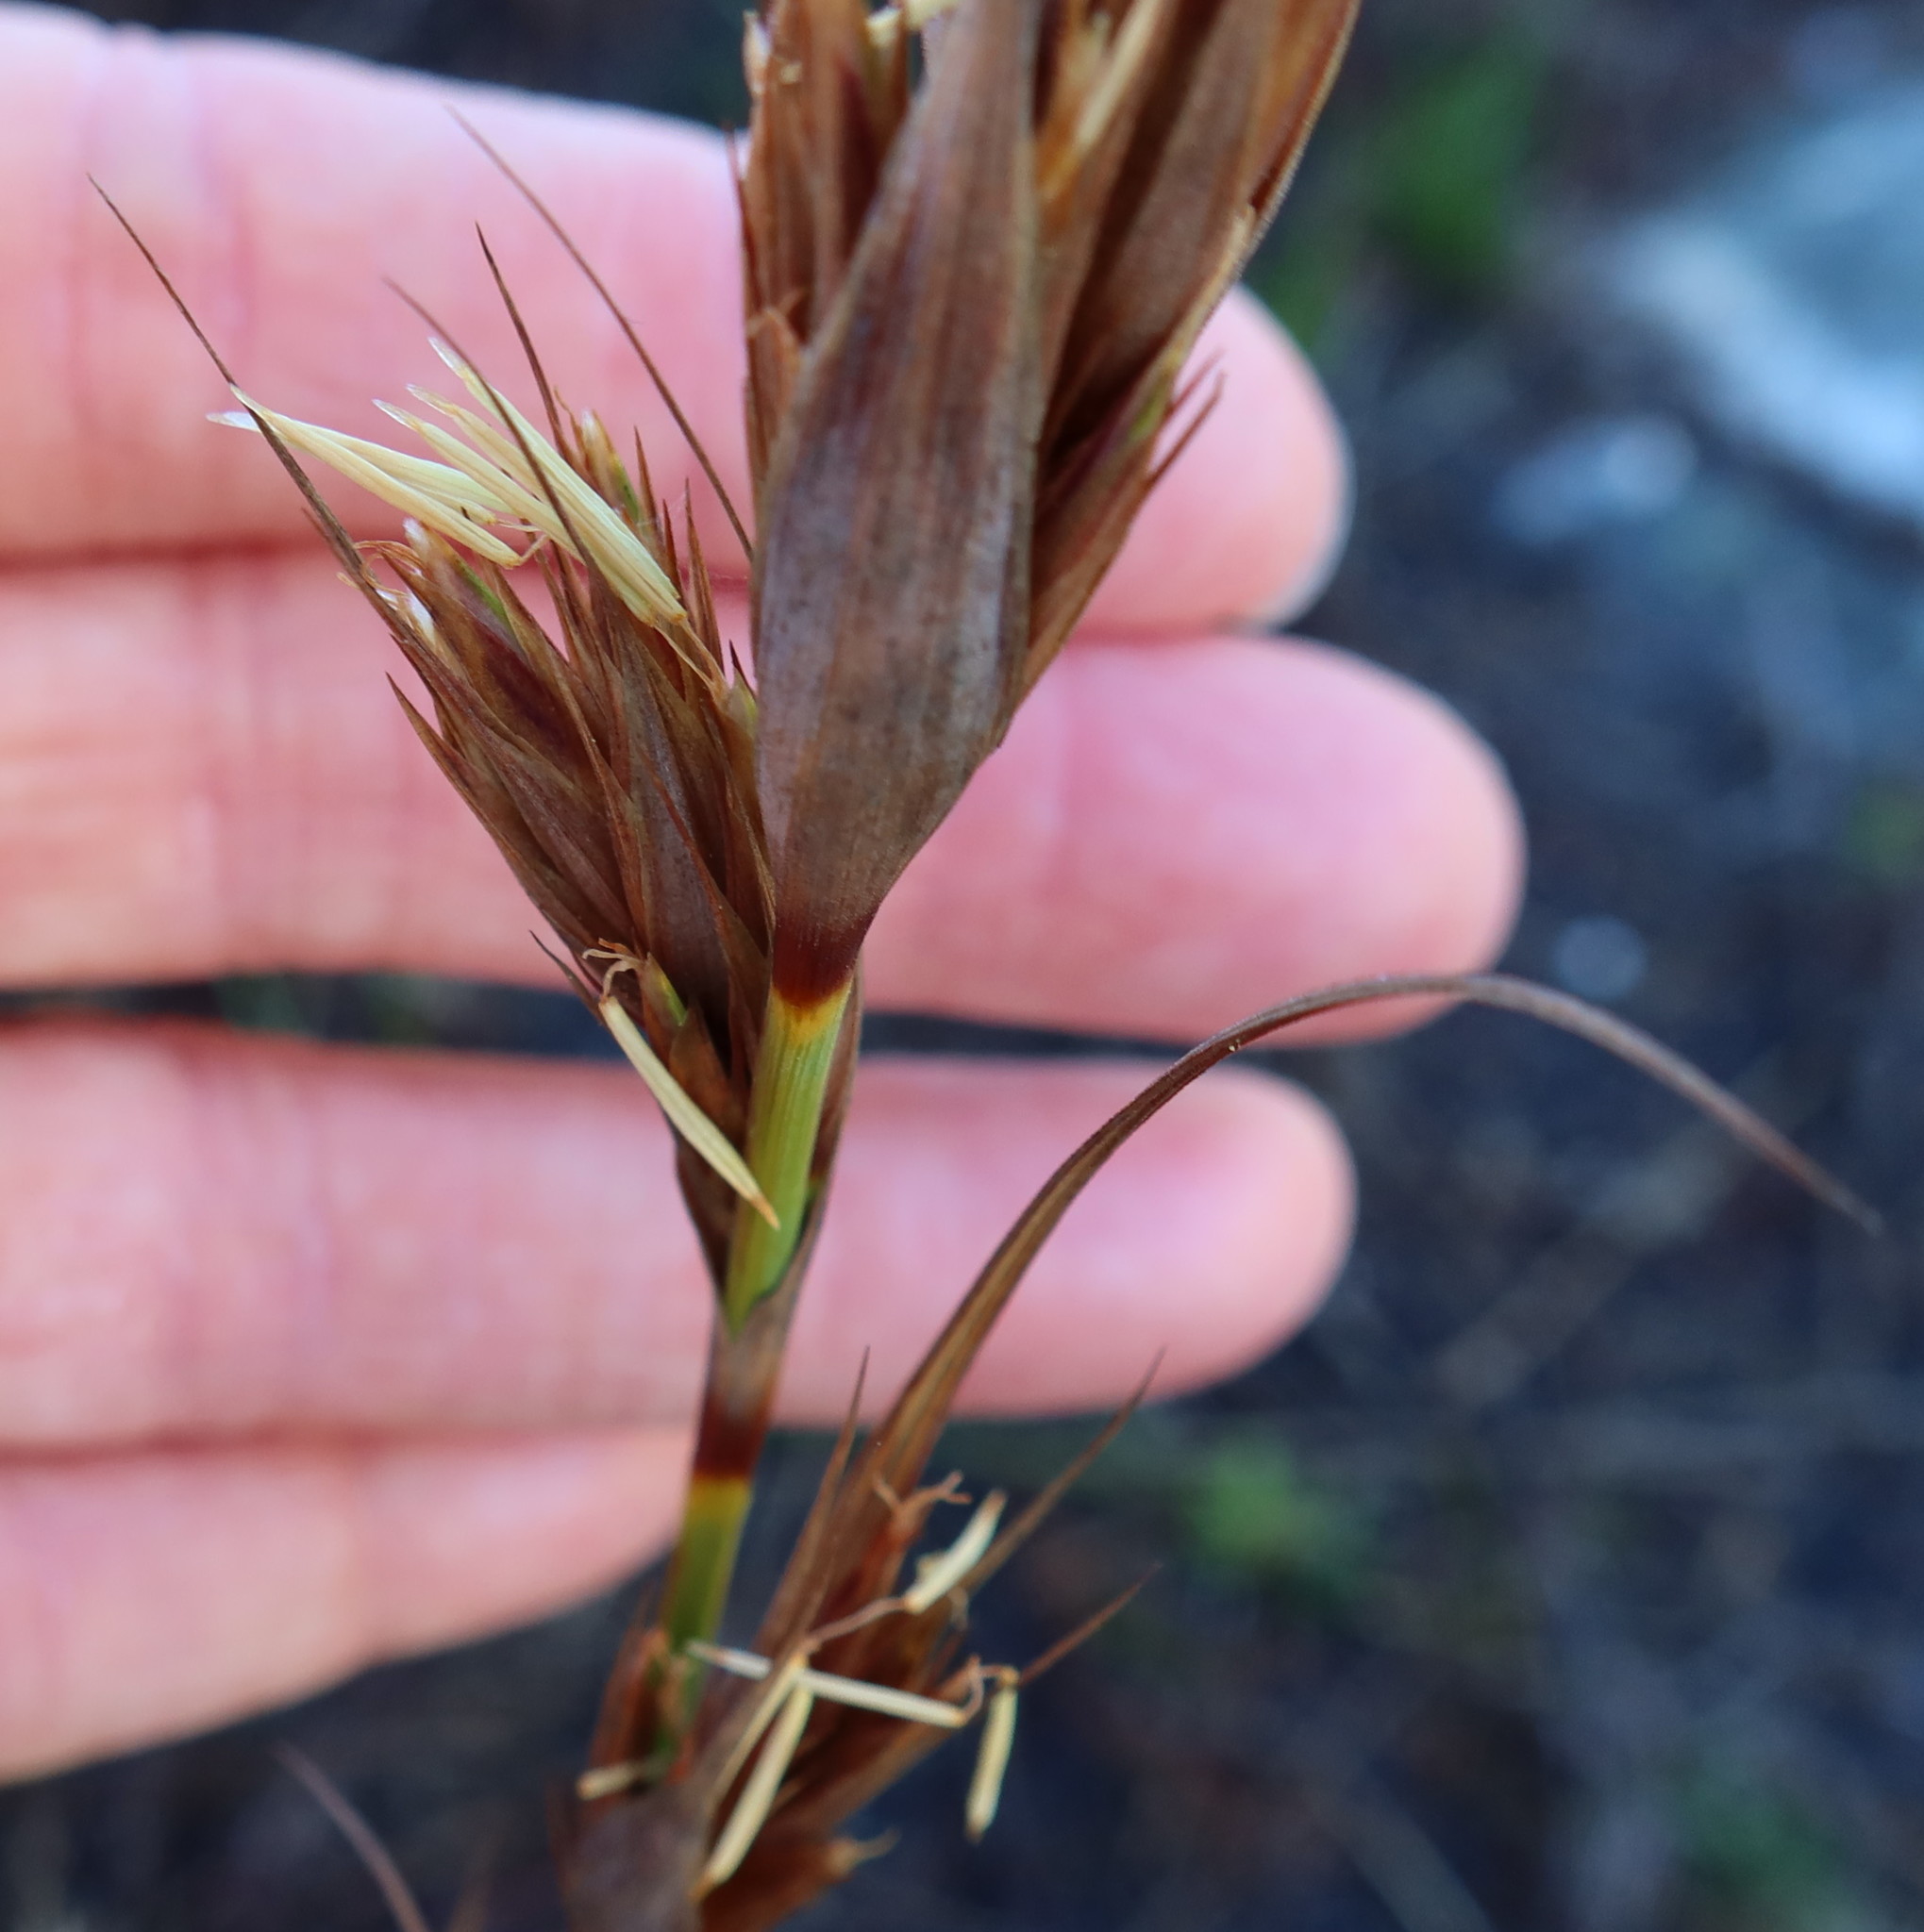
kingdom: Plantae
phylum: Tracheophyta
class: Liliopsida
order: Poales
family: Cyperaceae
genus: Tetraria
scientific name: Tetraria eximia
